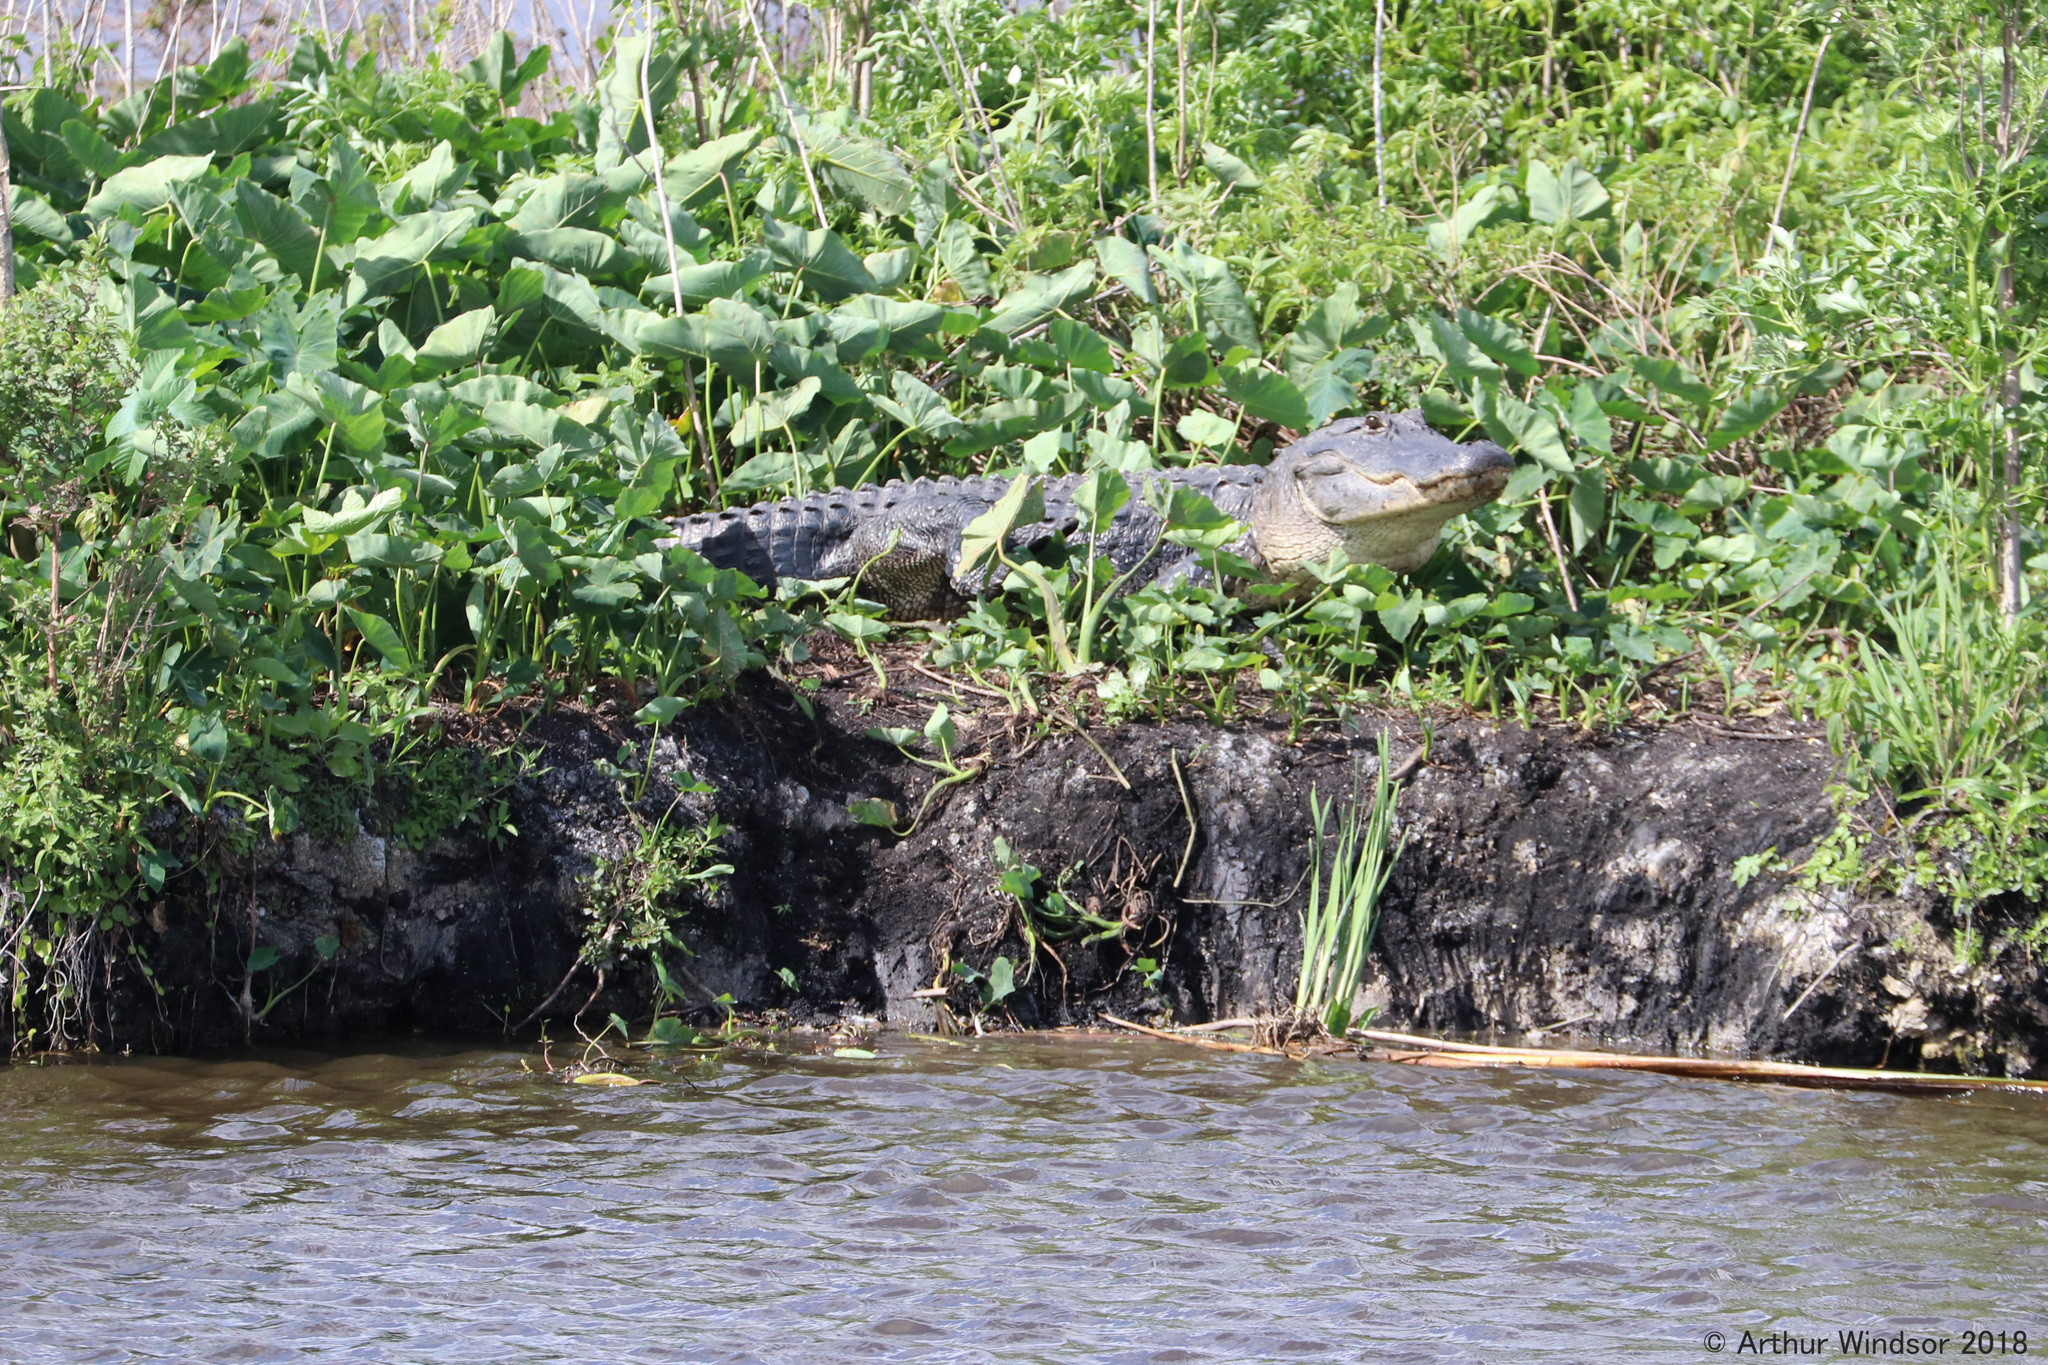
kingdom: Animalia
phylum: Chordata
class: Crocodylia
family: Alligatoridae
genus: Alligator
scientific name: Alligator mississippiensis
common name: American alligator
